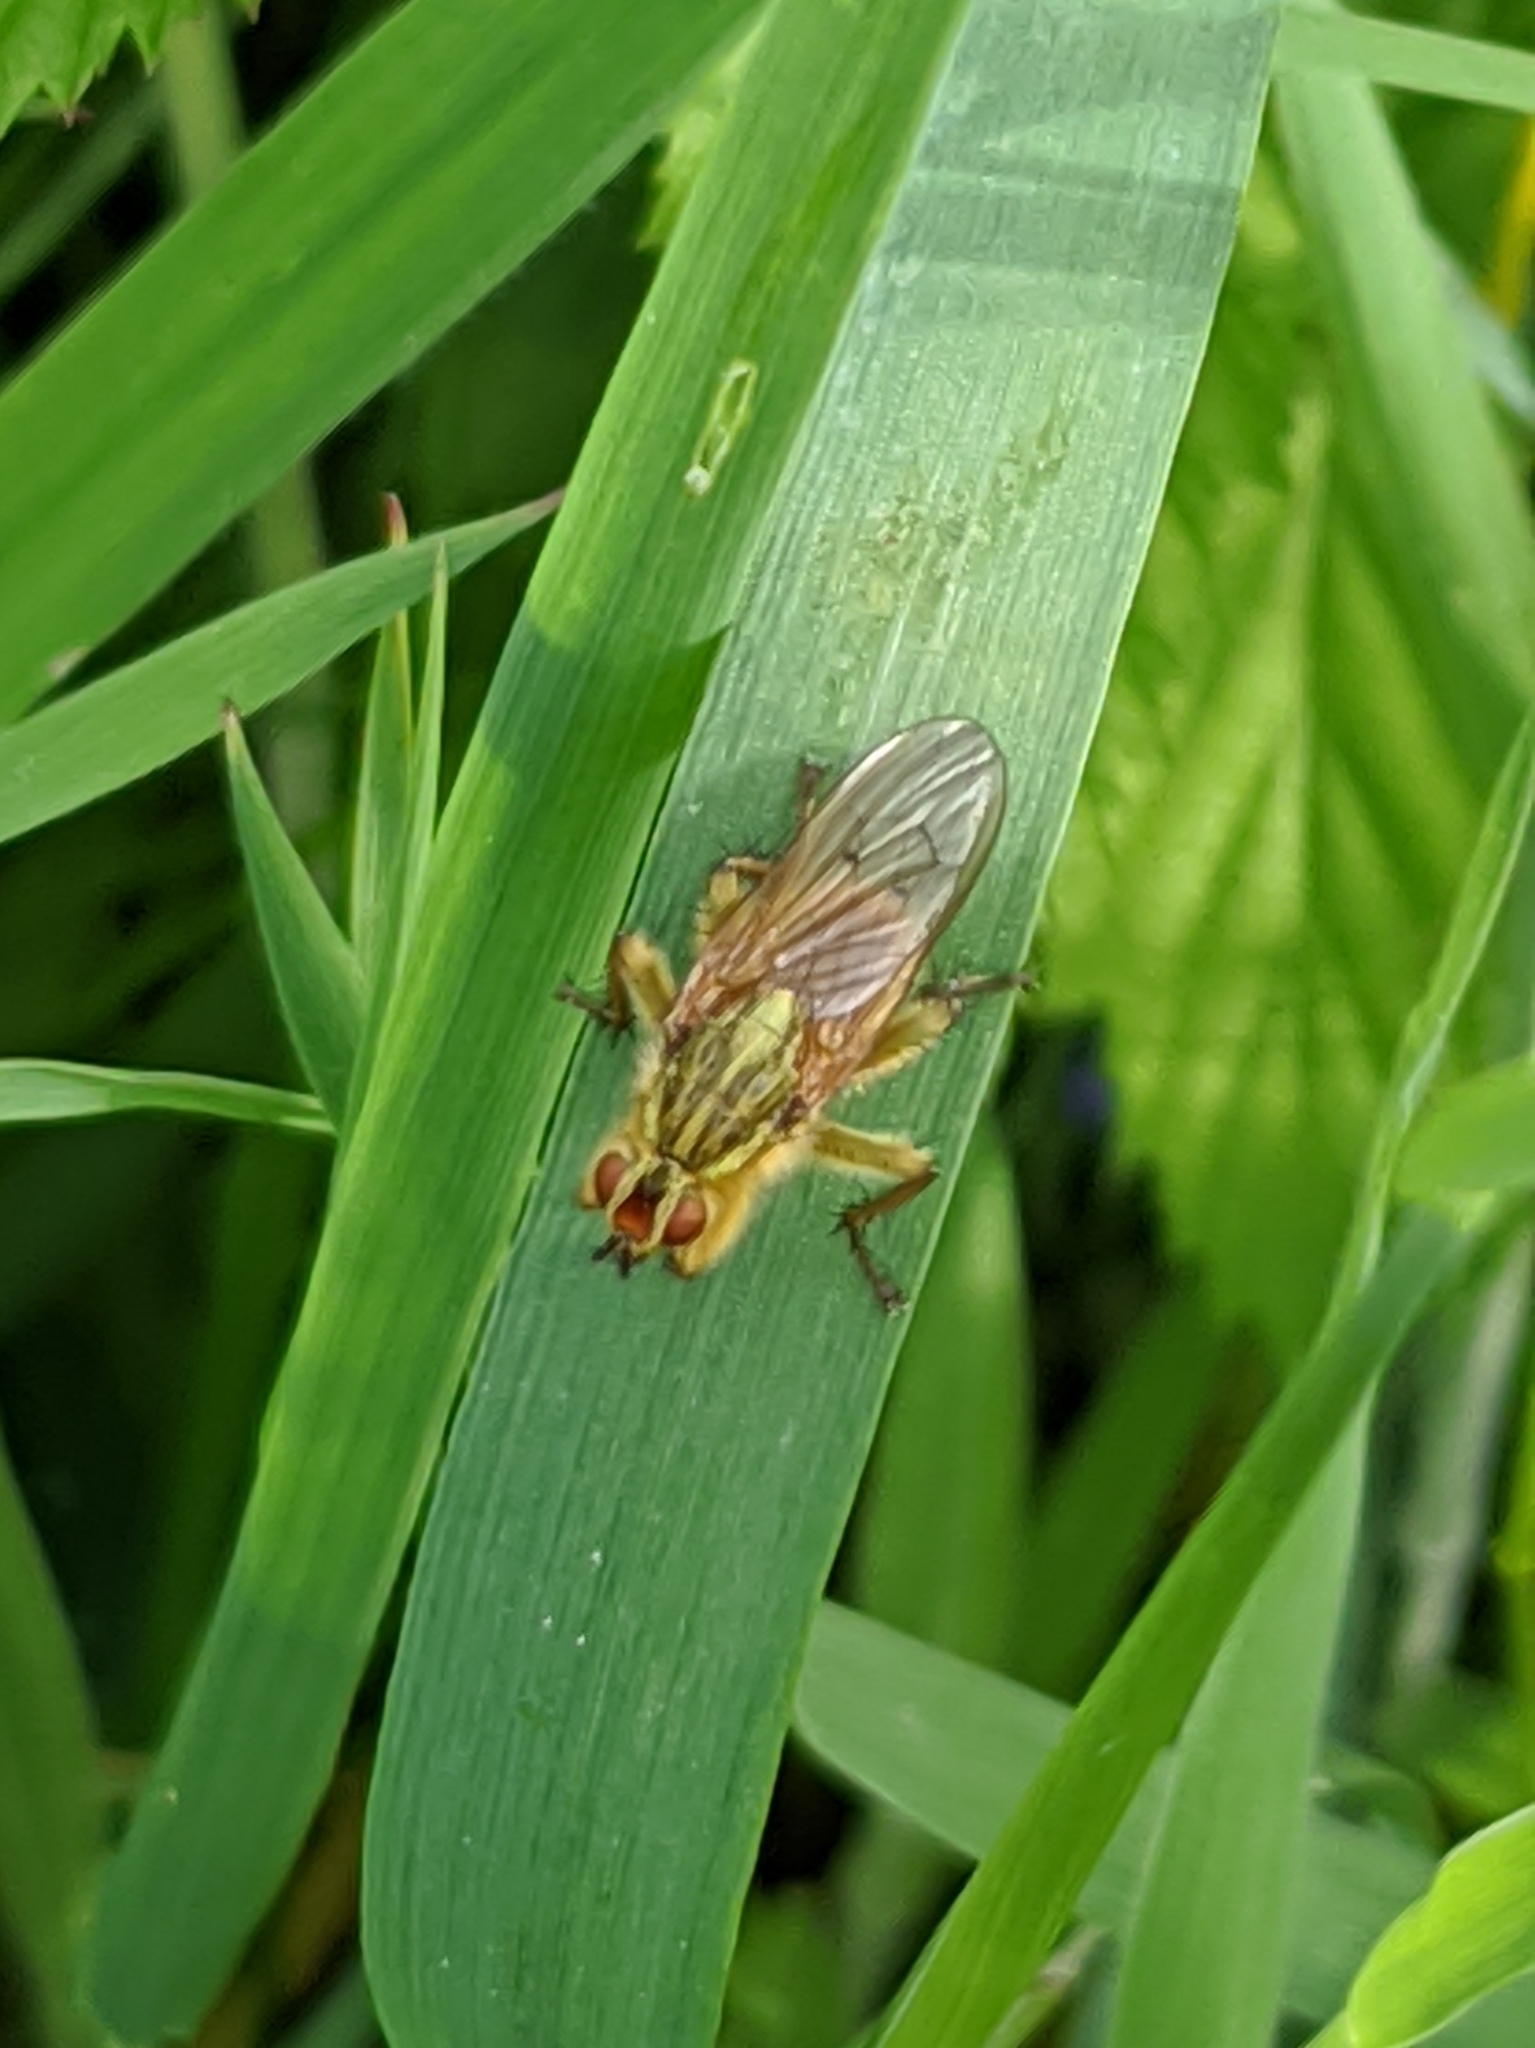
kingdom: Animalia
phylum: Arthropoda
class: Insecta
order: Diptera
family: Scathophagidae
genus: Scathophaga
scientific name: Scathophaga stercoraria
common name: Yellow dung fly
